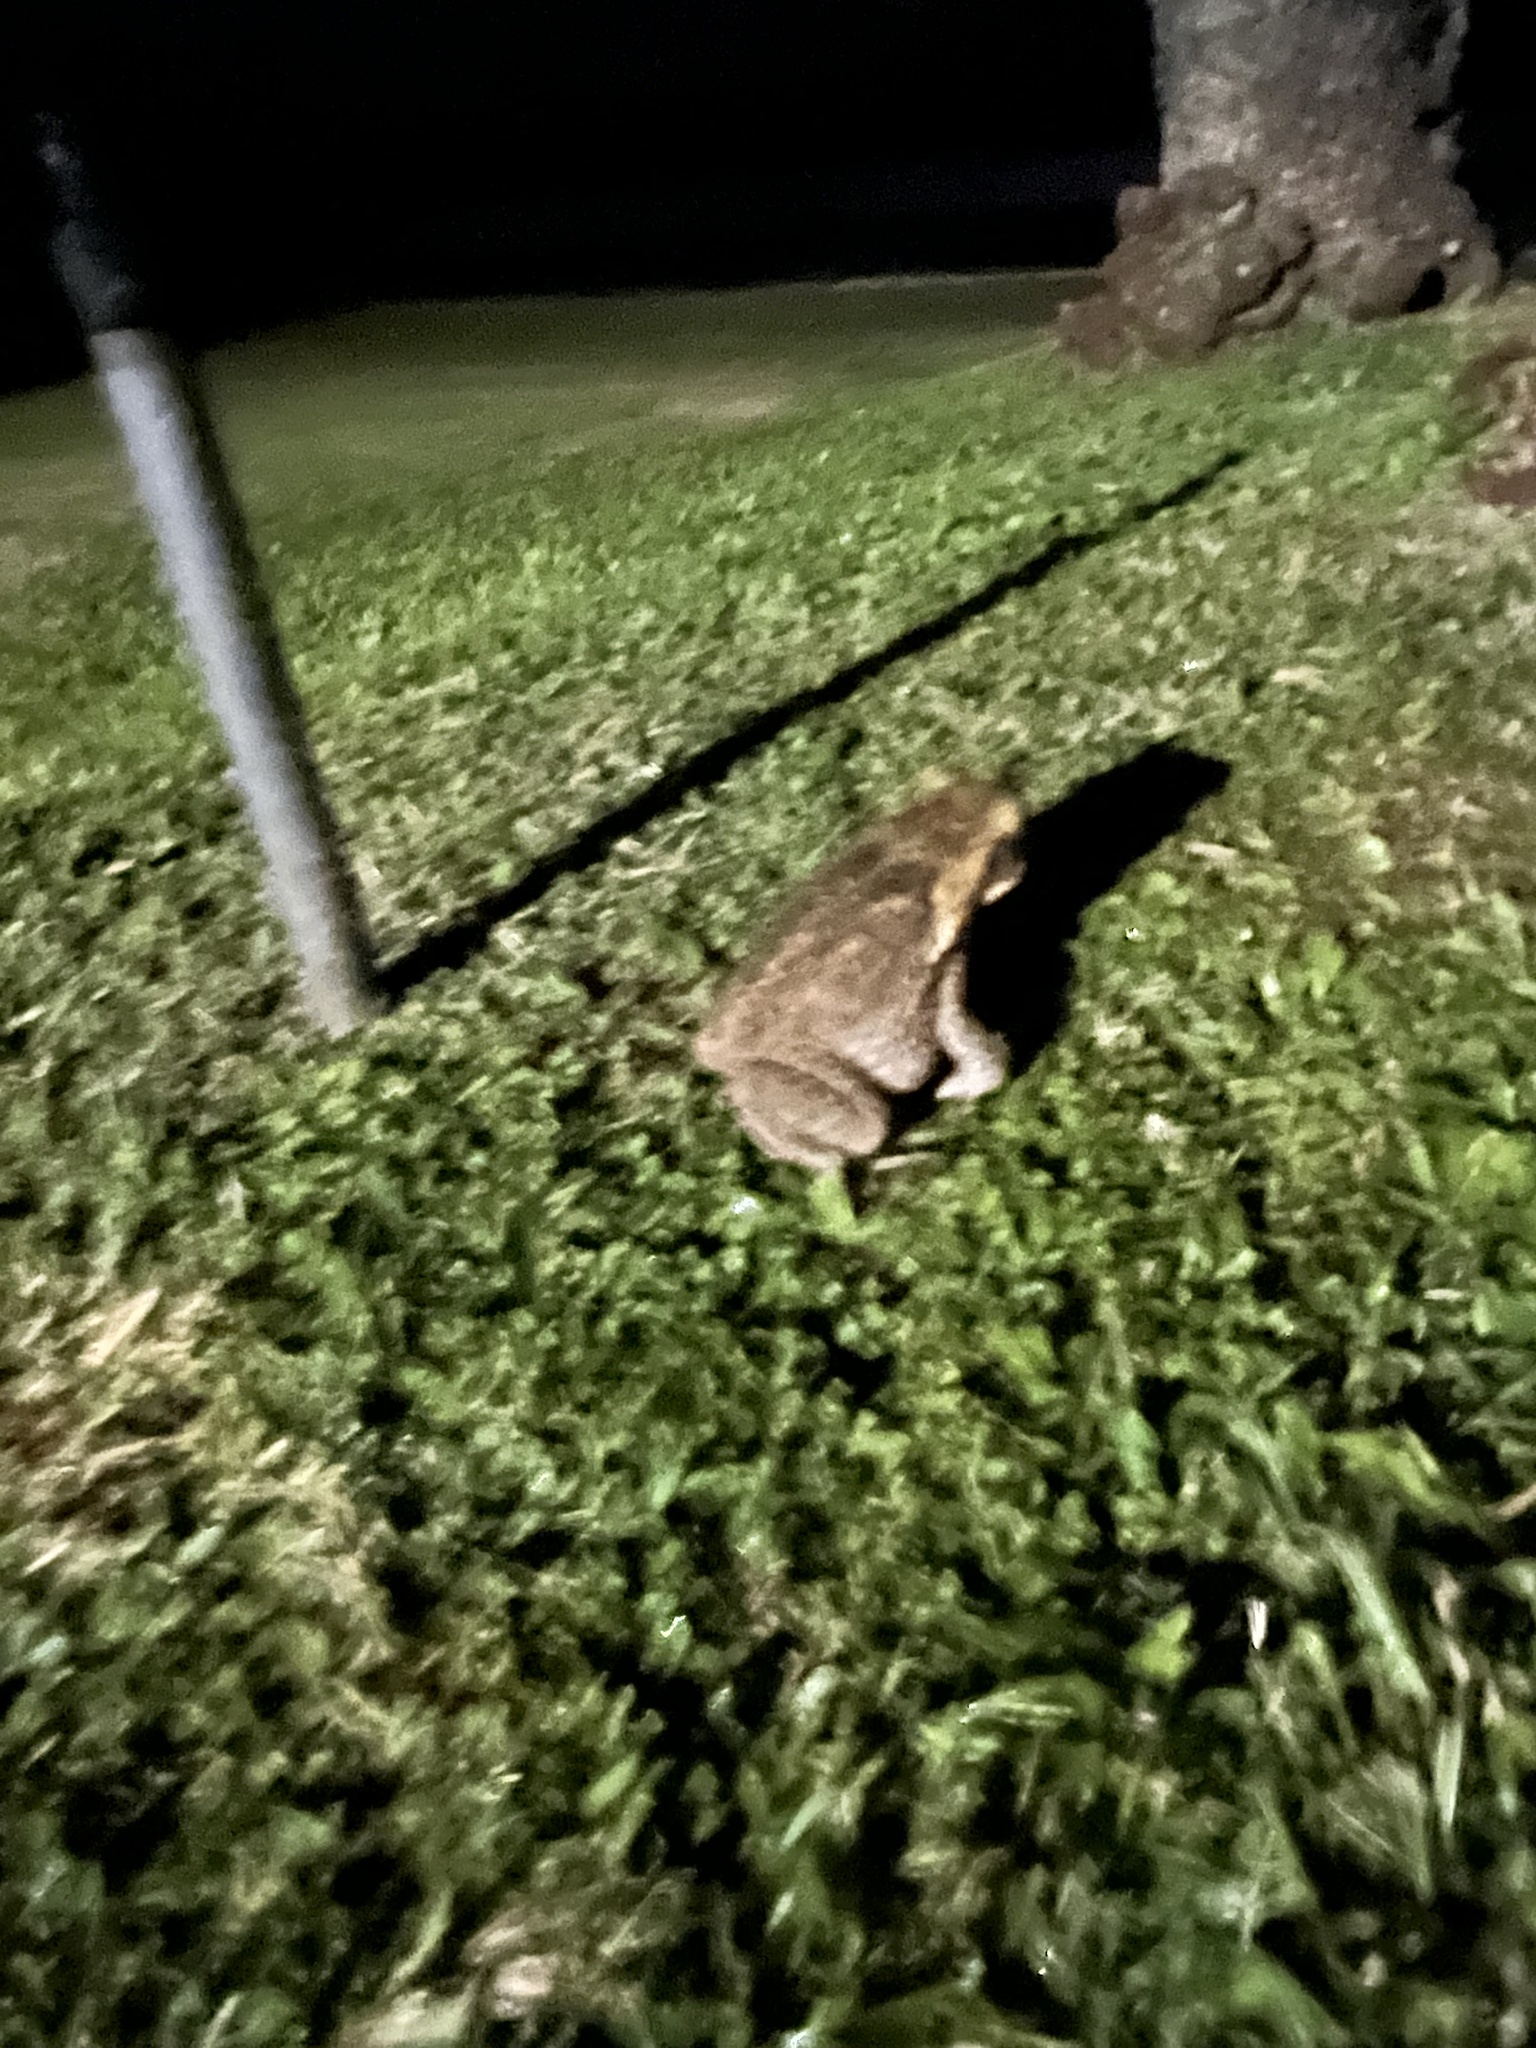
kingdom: Animalia
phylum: Chordata
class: Amphibia
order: Anura
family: Bufonidae
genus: Rhinella
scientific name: Rhinella marina
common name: Cane toad
